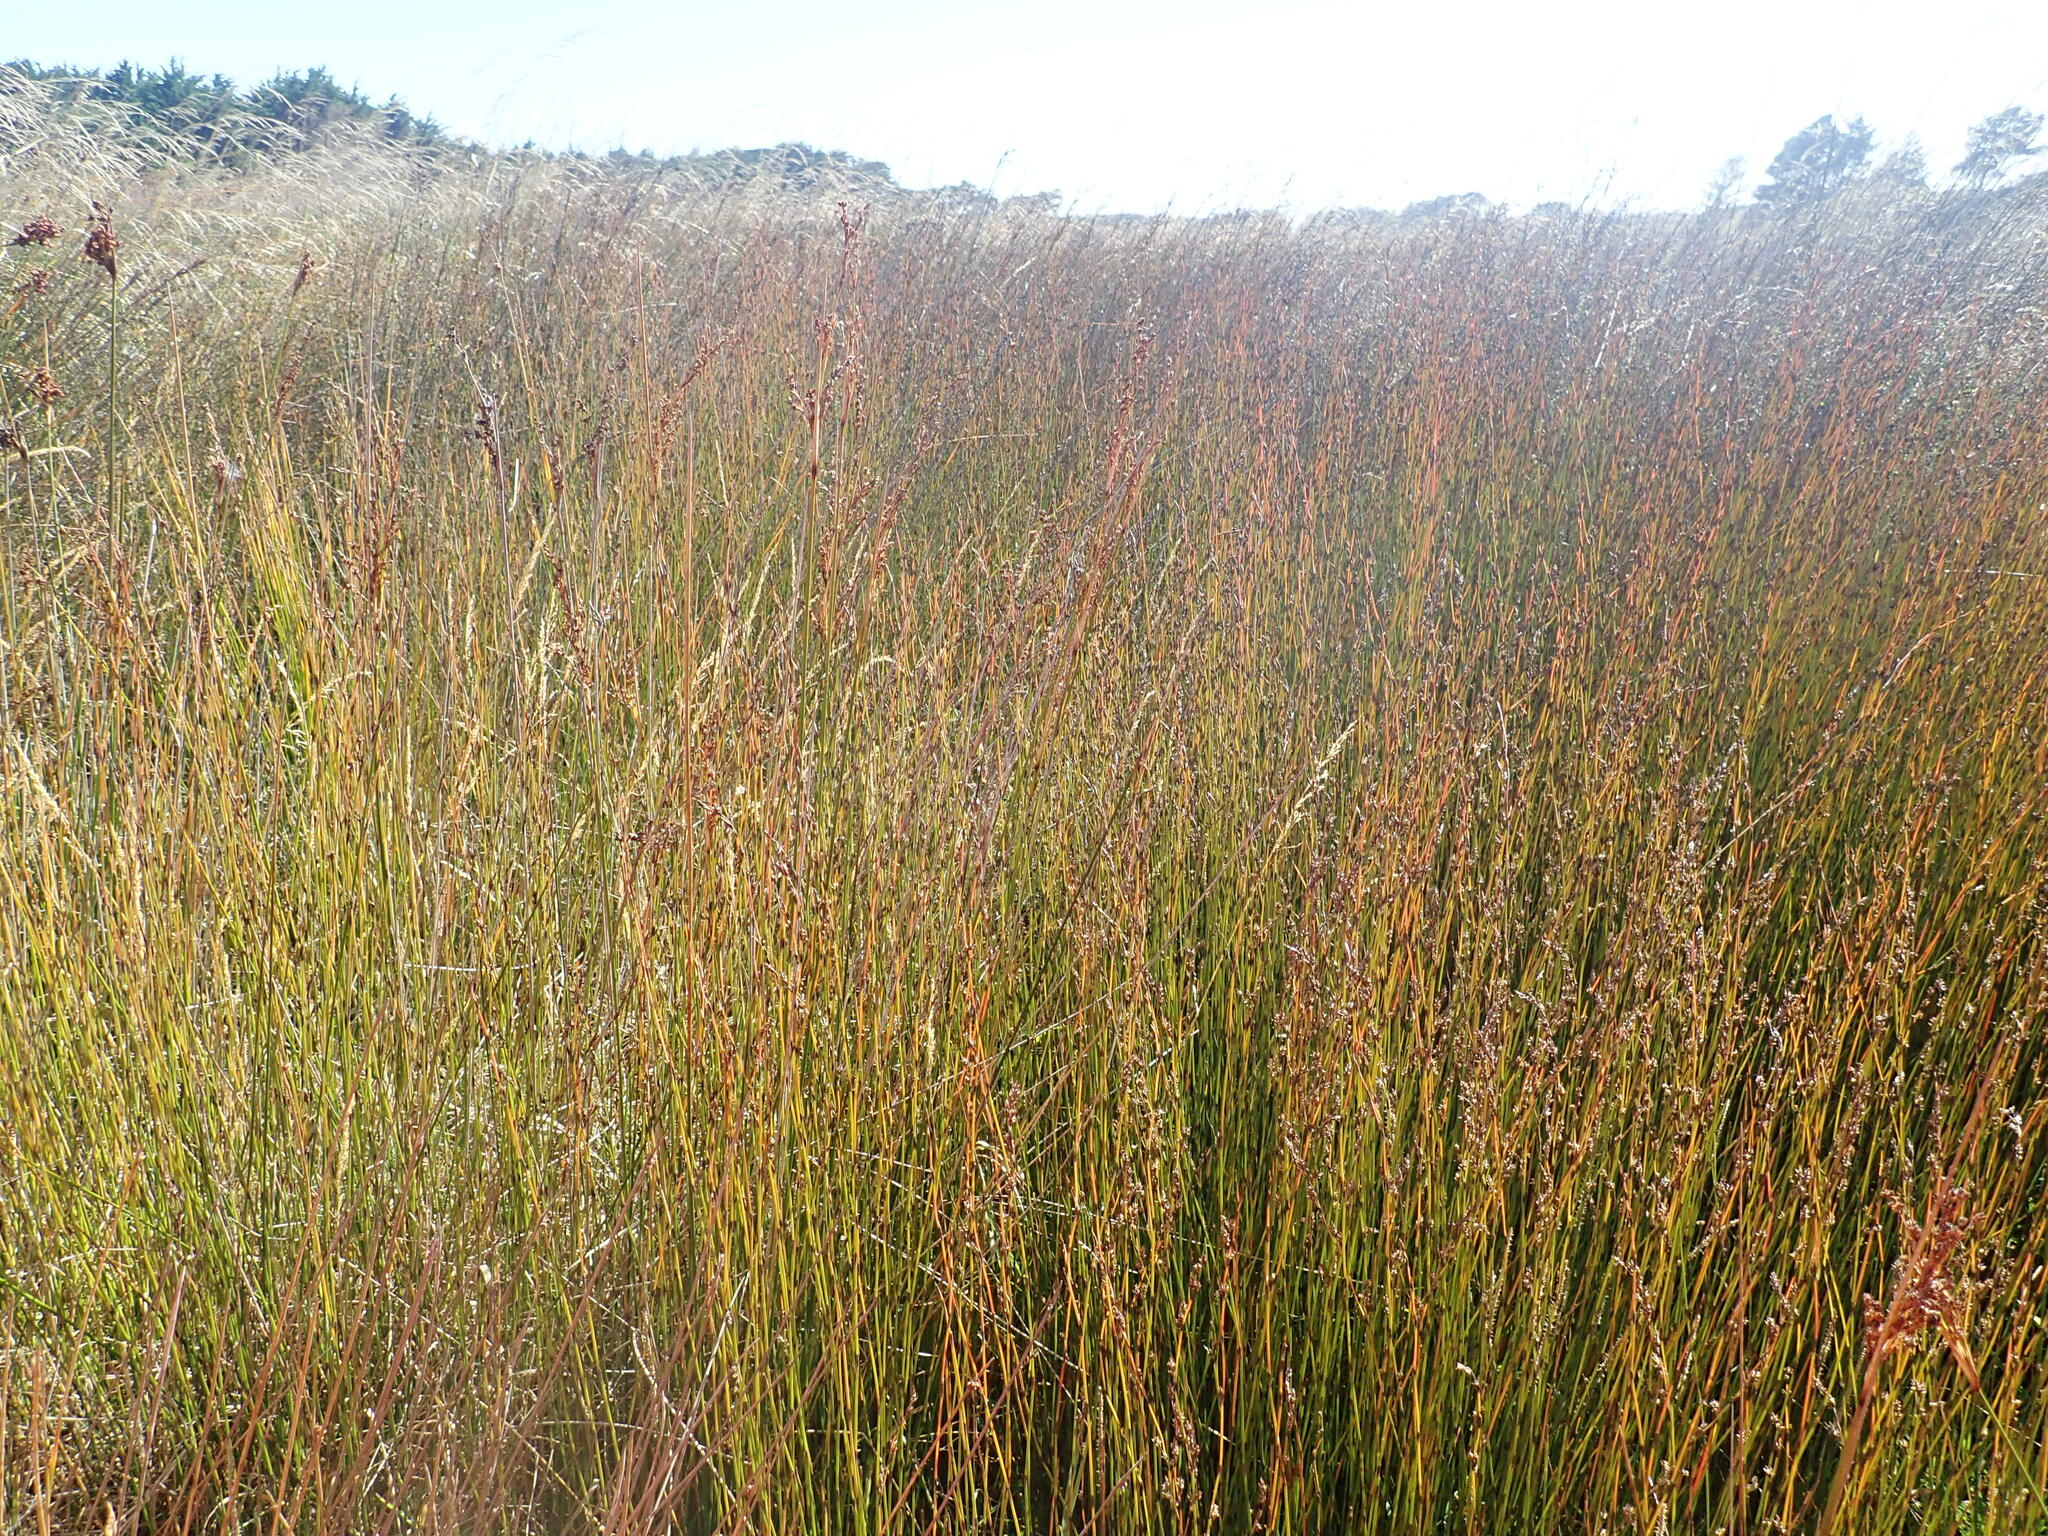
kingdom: Plantae
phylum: Tracheophyta
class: Liliopsida
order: Poales
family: Restionaceae
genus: Apodasmia
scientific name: Apodasmia similis
